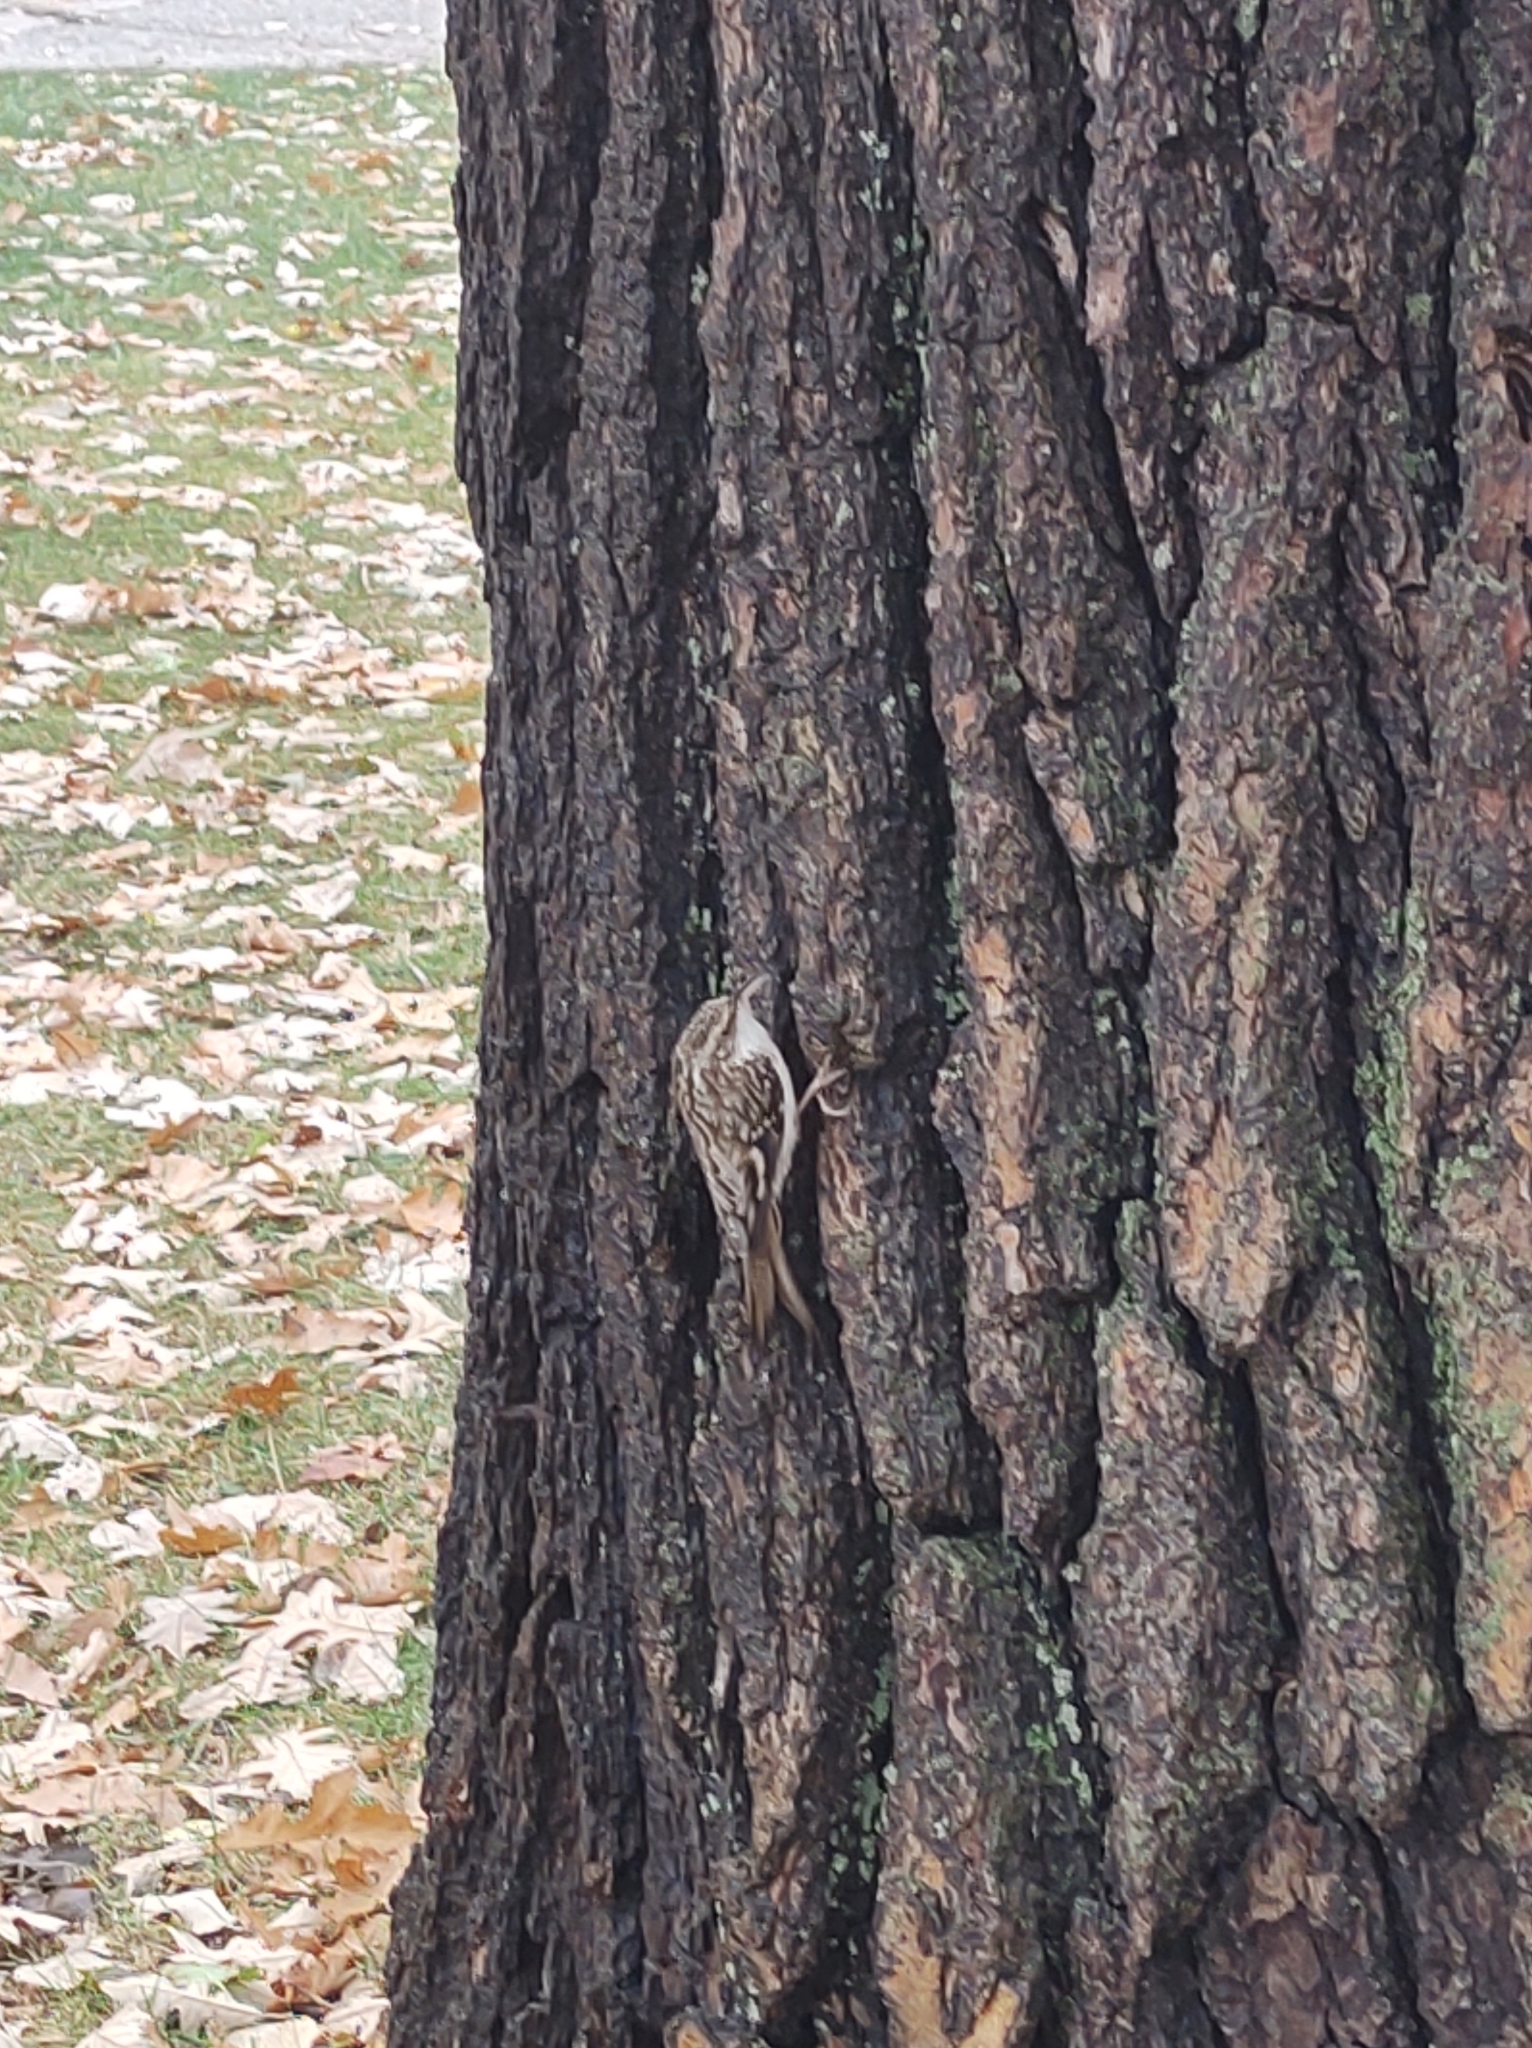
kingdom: Animalia
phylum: Chordata
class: Aves
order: Passeriformes
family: Certhiidae
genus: Certhia
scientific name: Certhia americana
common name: Brown creeper
